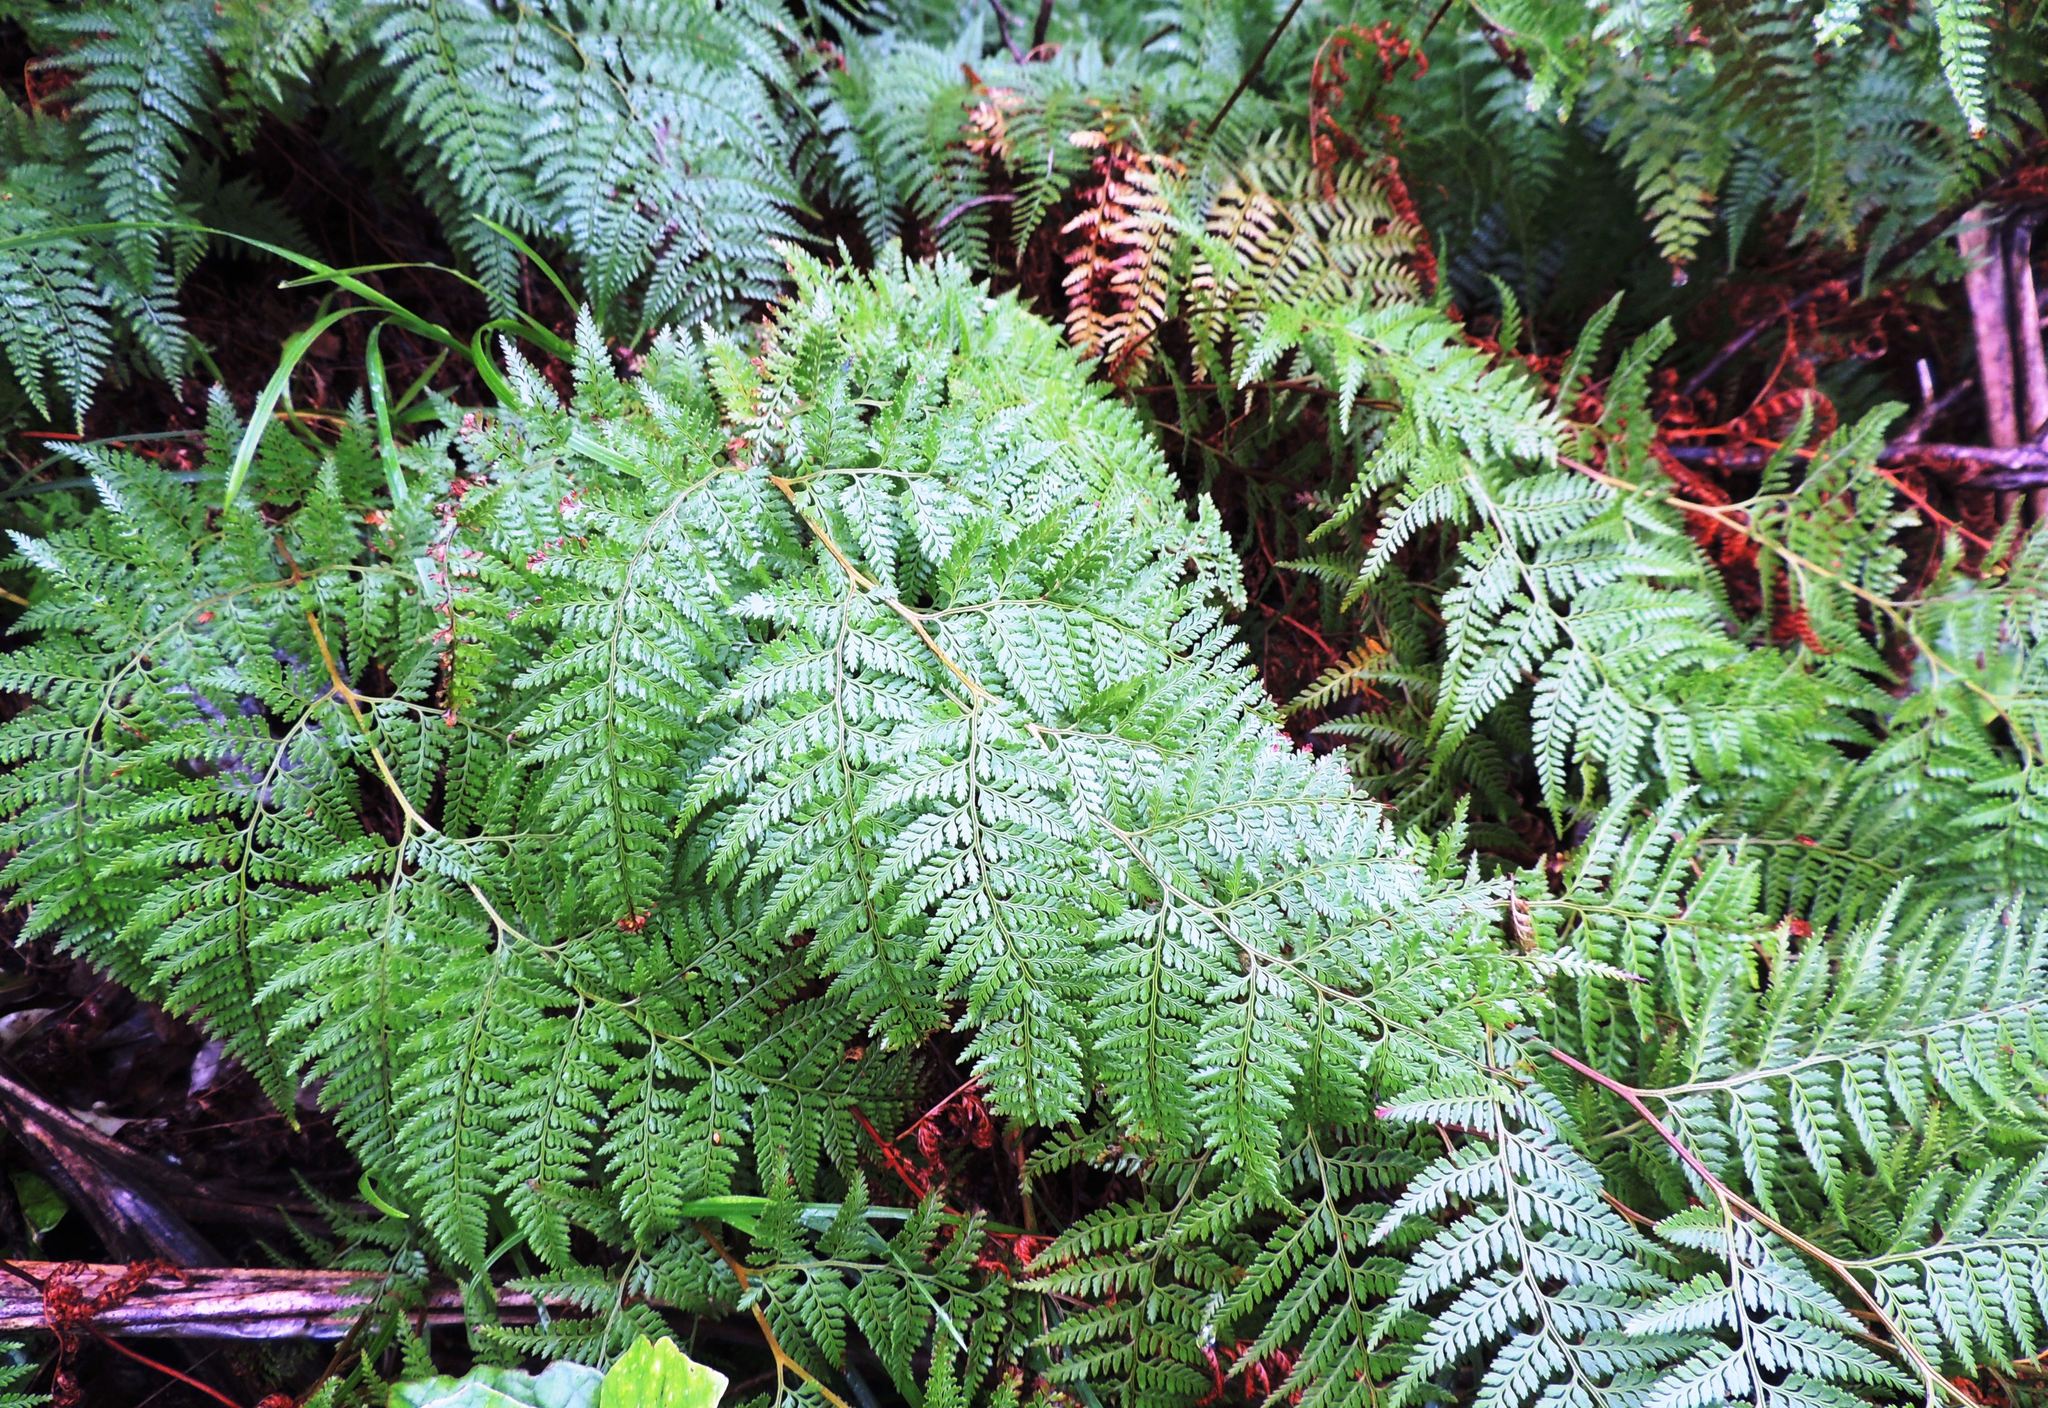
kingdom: Plantae
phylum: Tracheophyta
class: Polypodiopsida
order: Polypodiales
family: Dennstaedtiaceae
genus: Paesia
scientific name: Paesia scaberula
